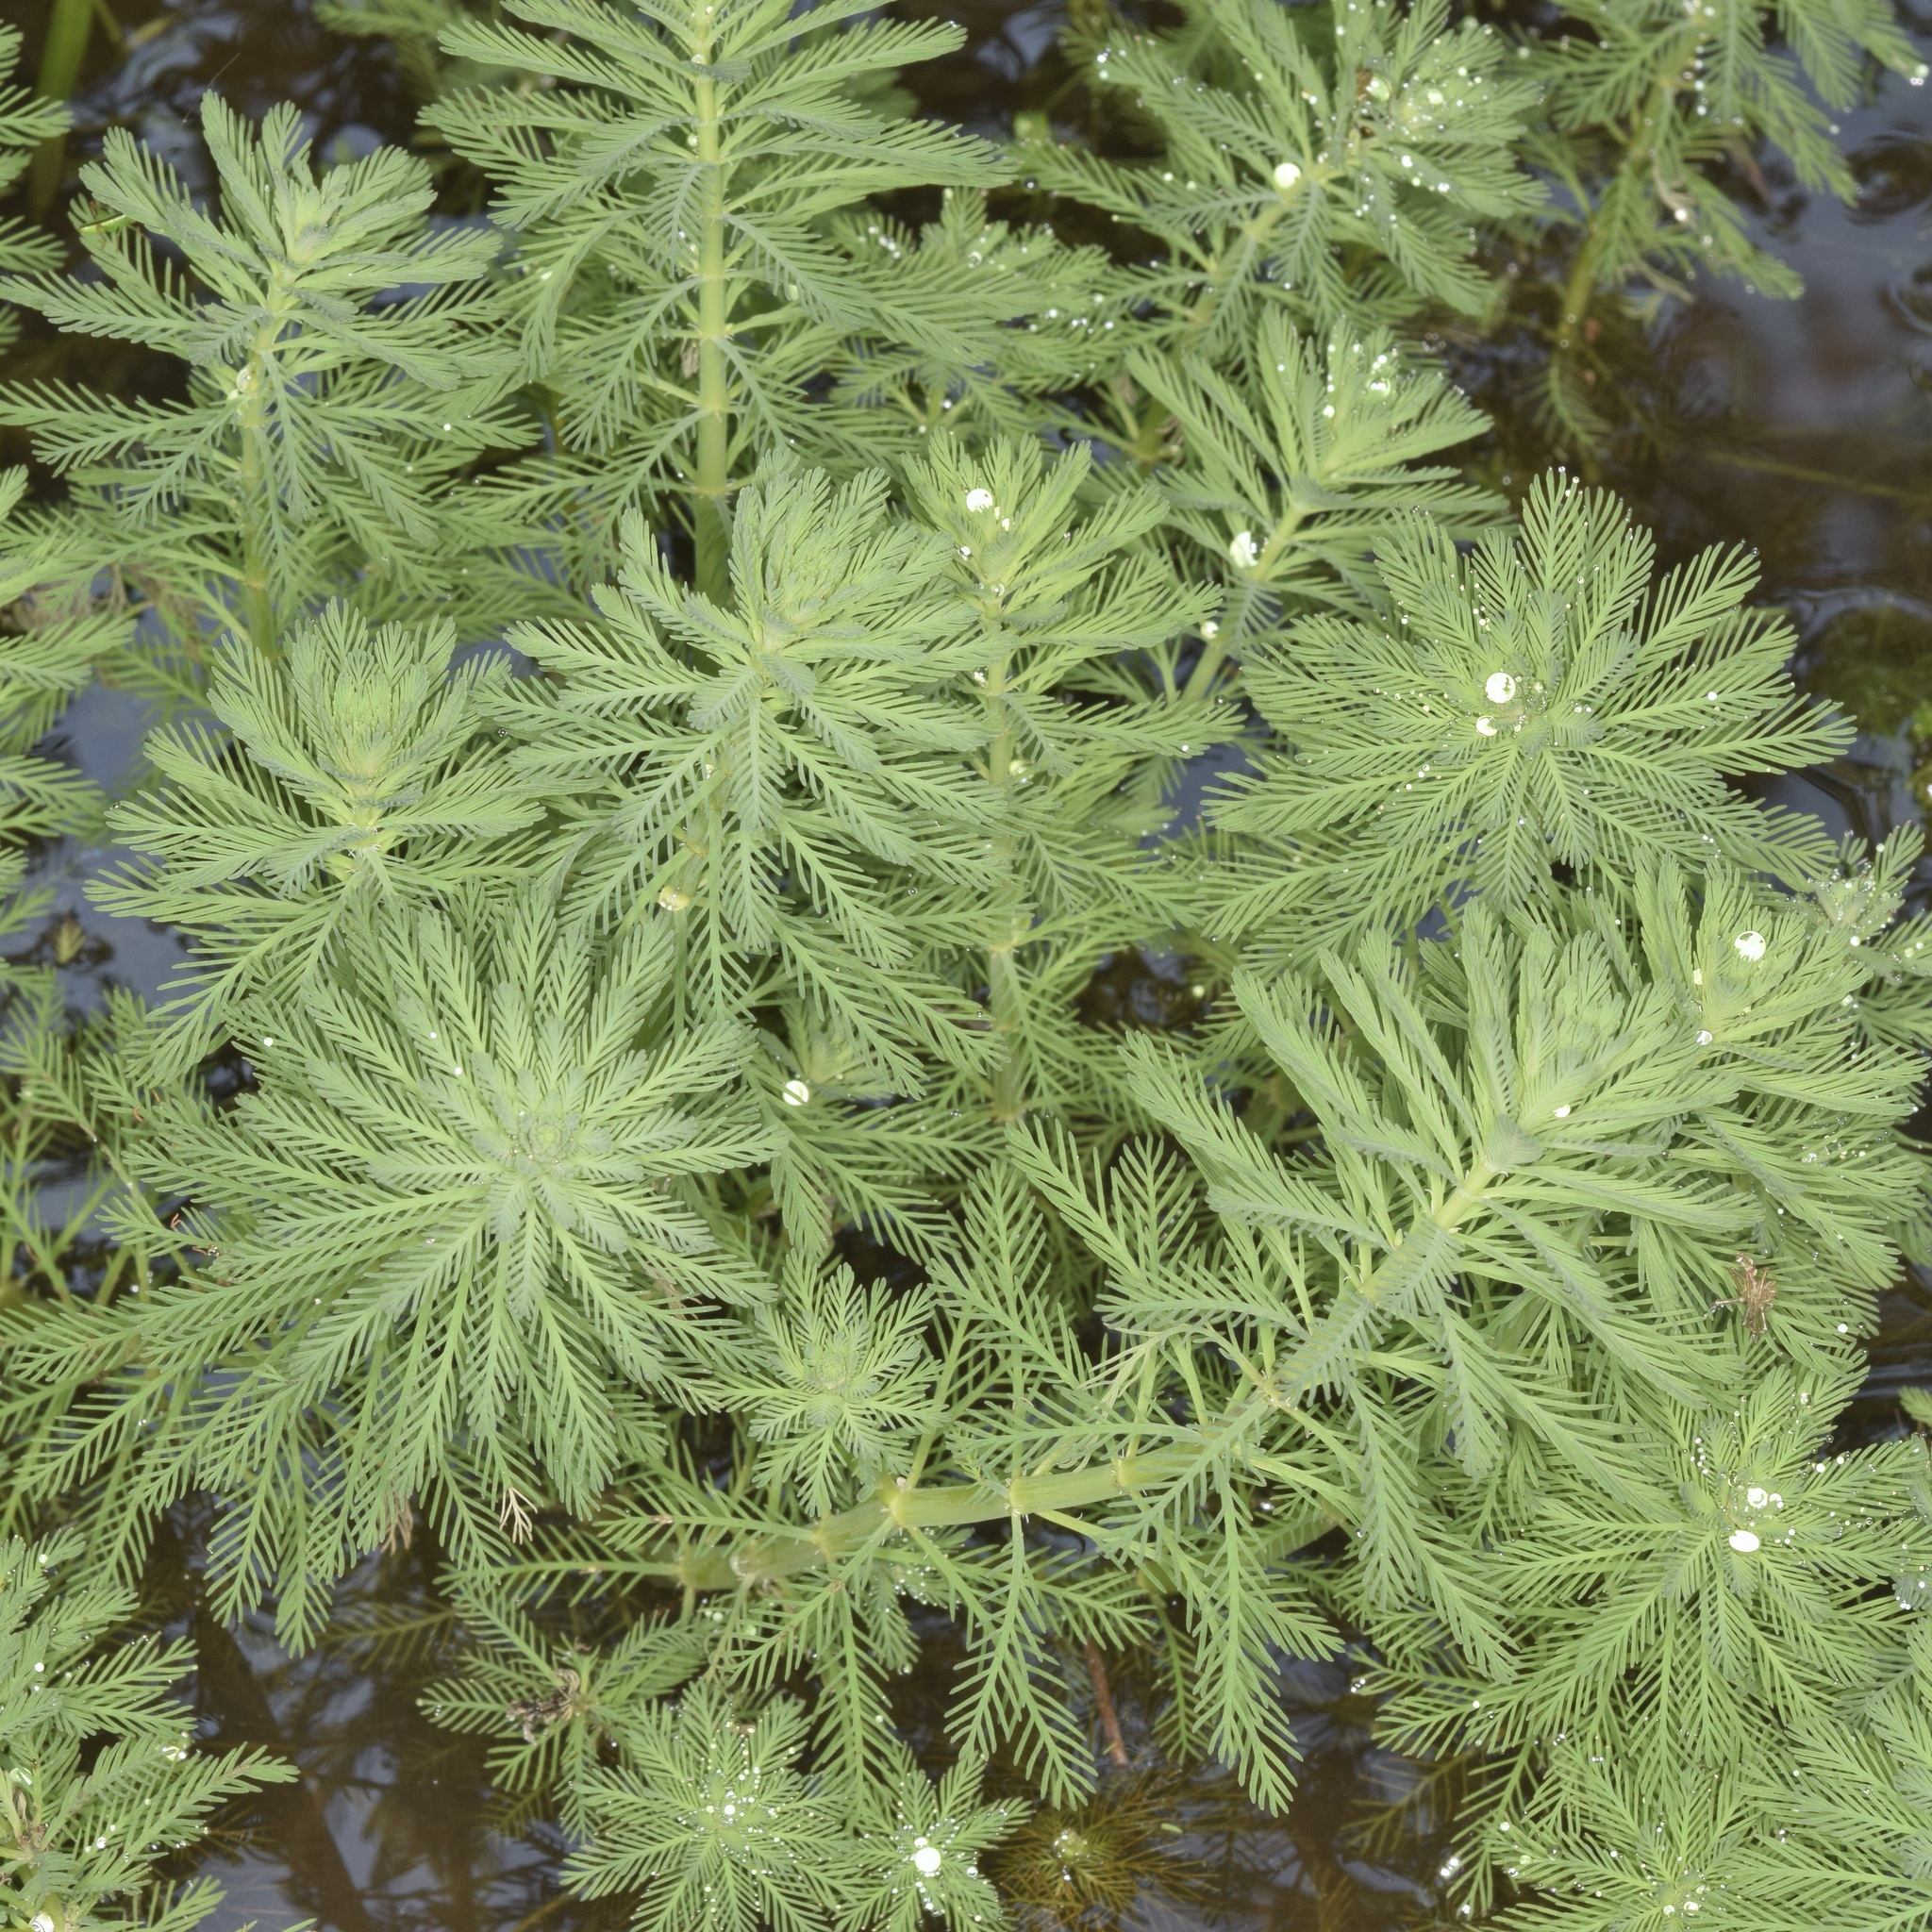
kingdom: Plantae
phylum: Tracheophyta
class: Magnoliopsida
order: Saxifragales
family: Haloragaceae
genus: Myriophyllum
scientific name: Myriophyllum aquaticum
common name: Parrot's feather
